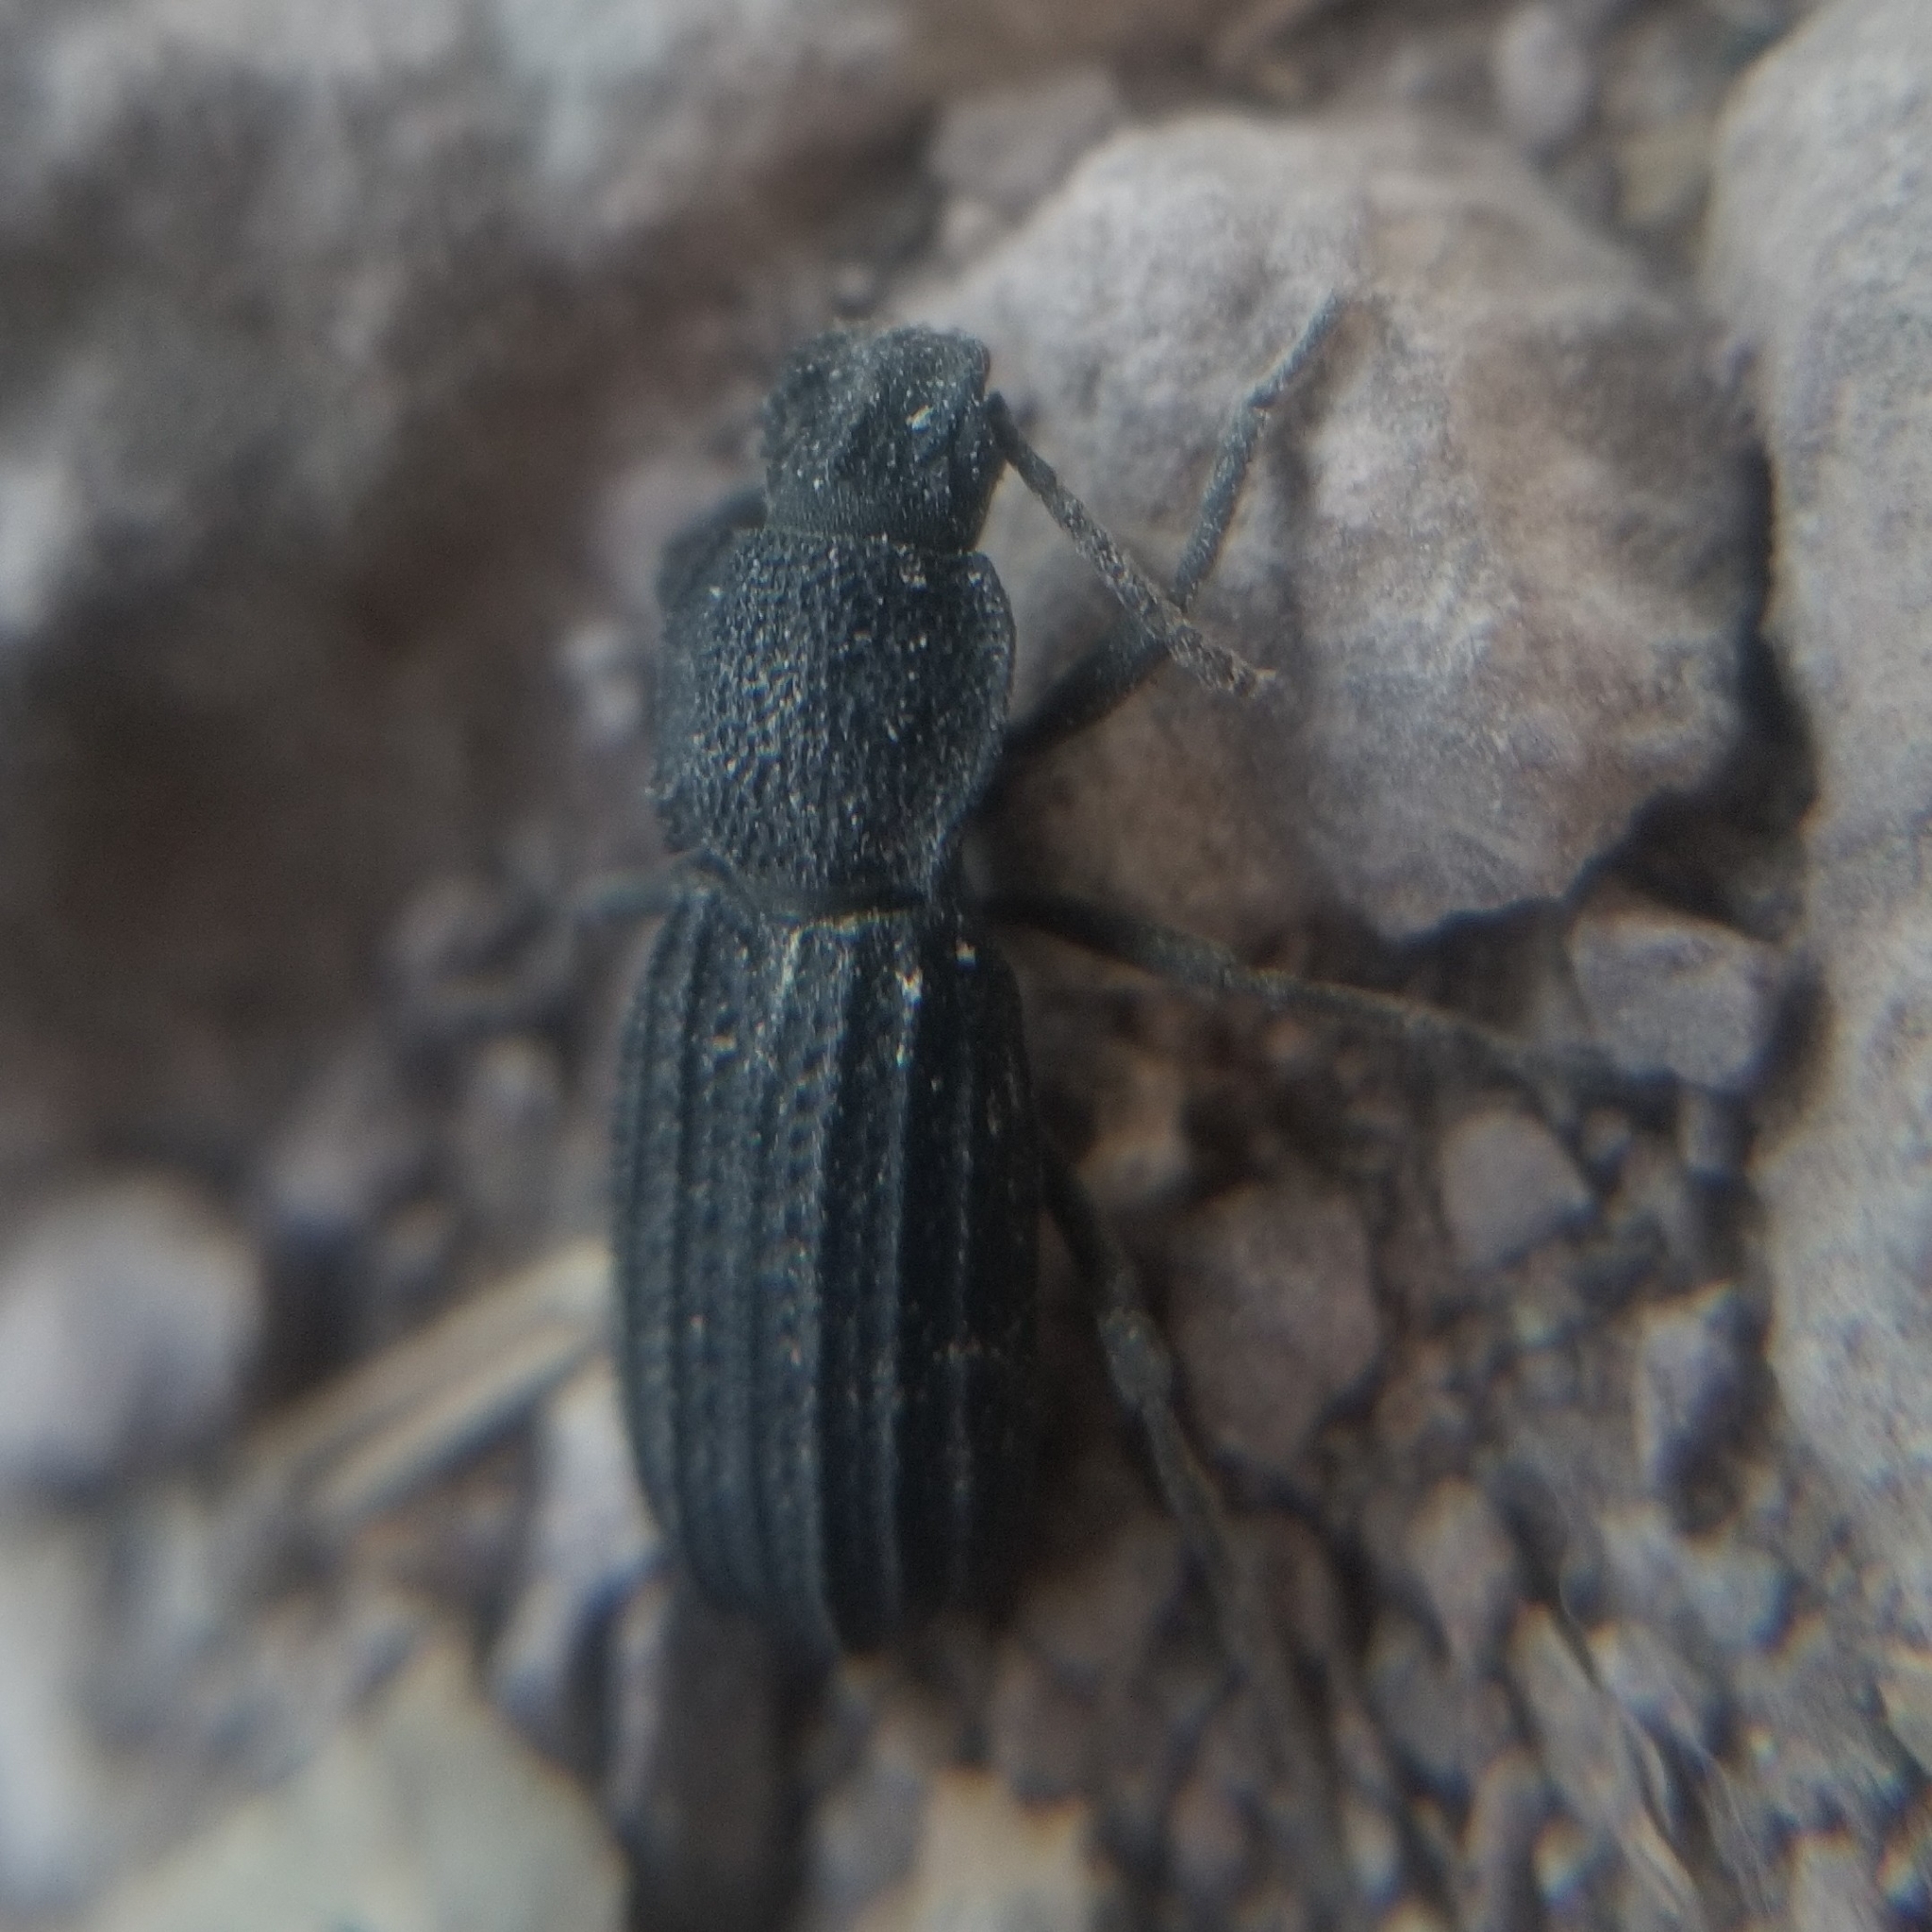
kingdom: Animalia
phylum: Arthropoda
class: Insecta
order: Coleoptera
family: Tenebrionidae
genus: Nyctoporis
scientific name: Nyctoporis carinata
